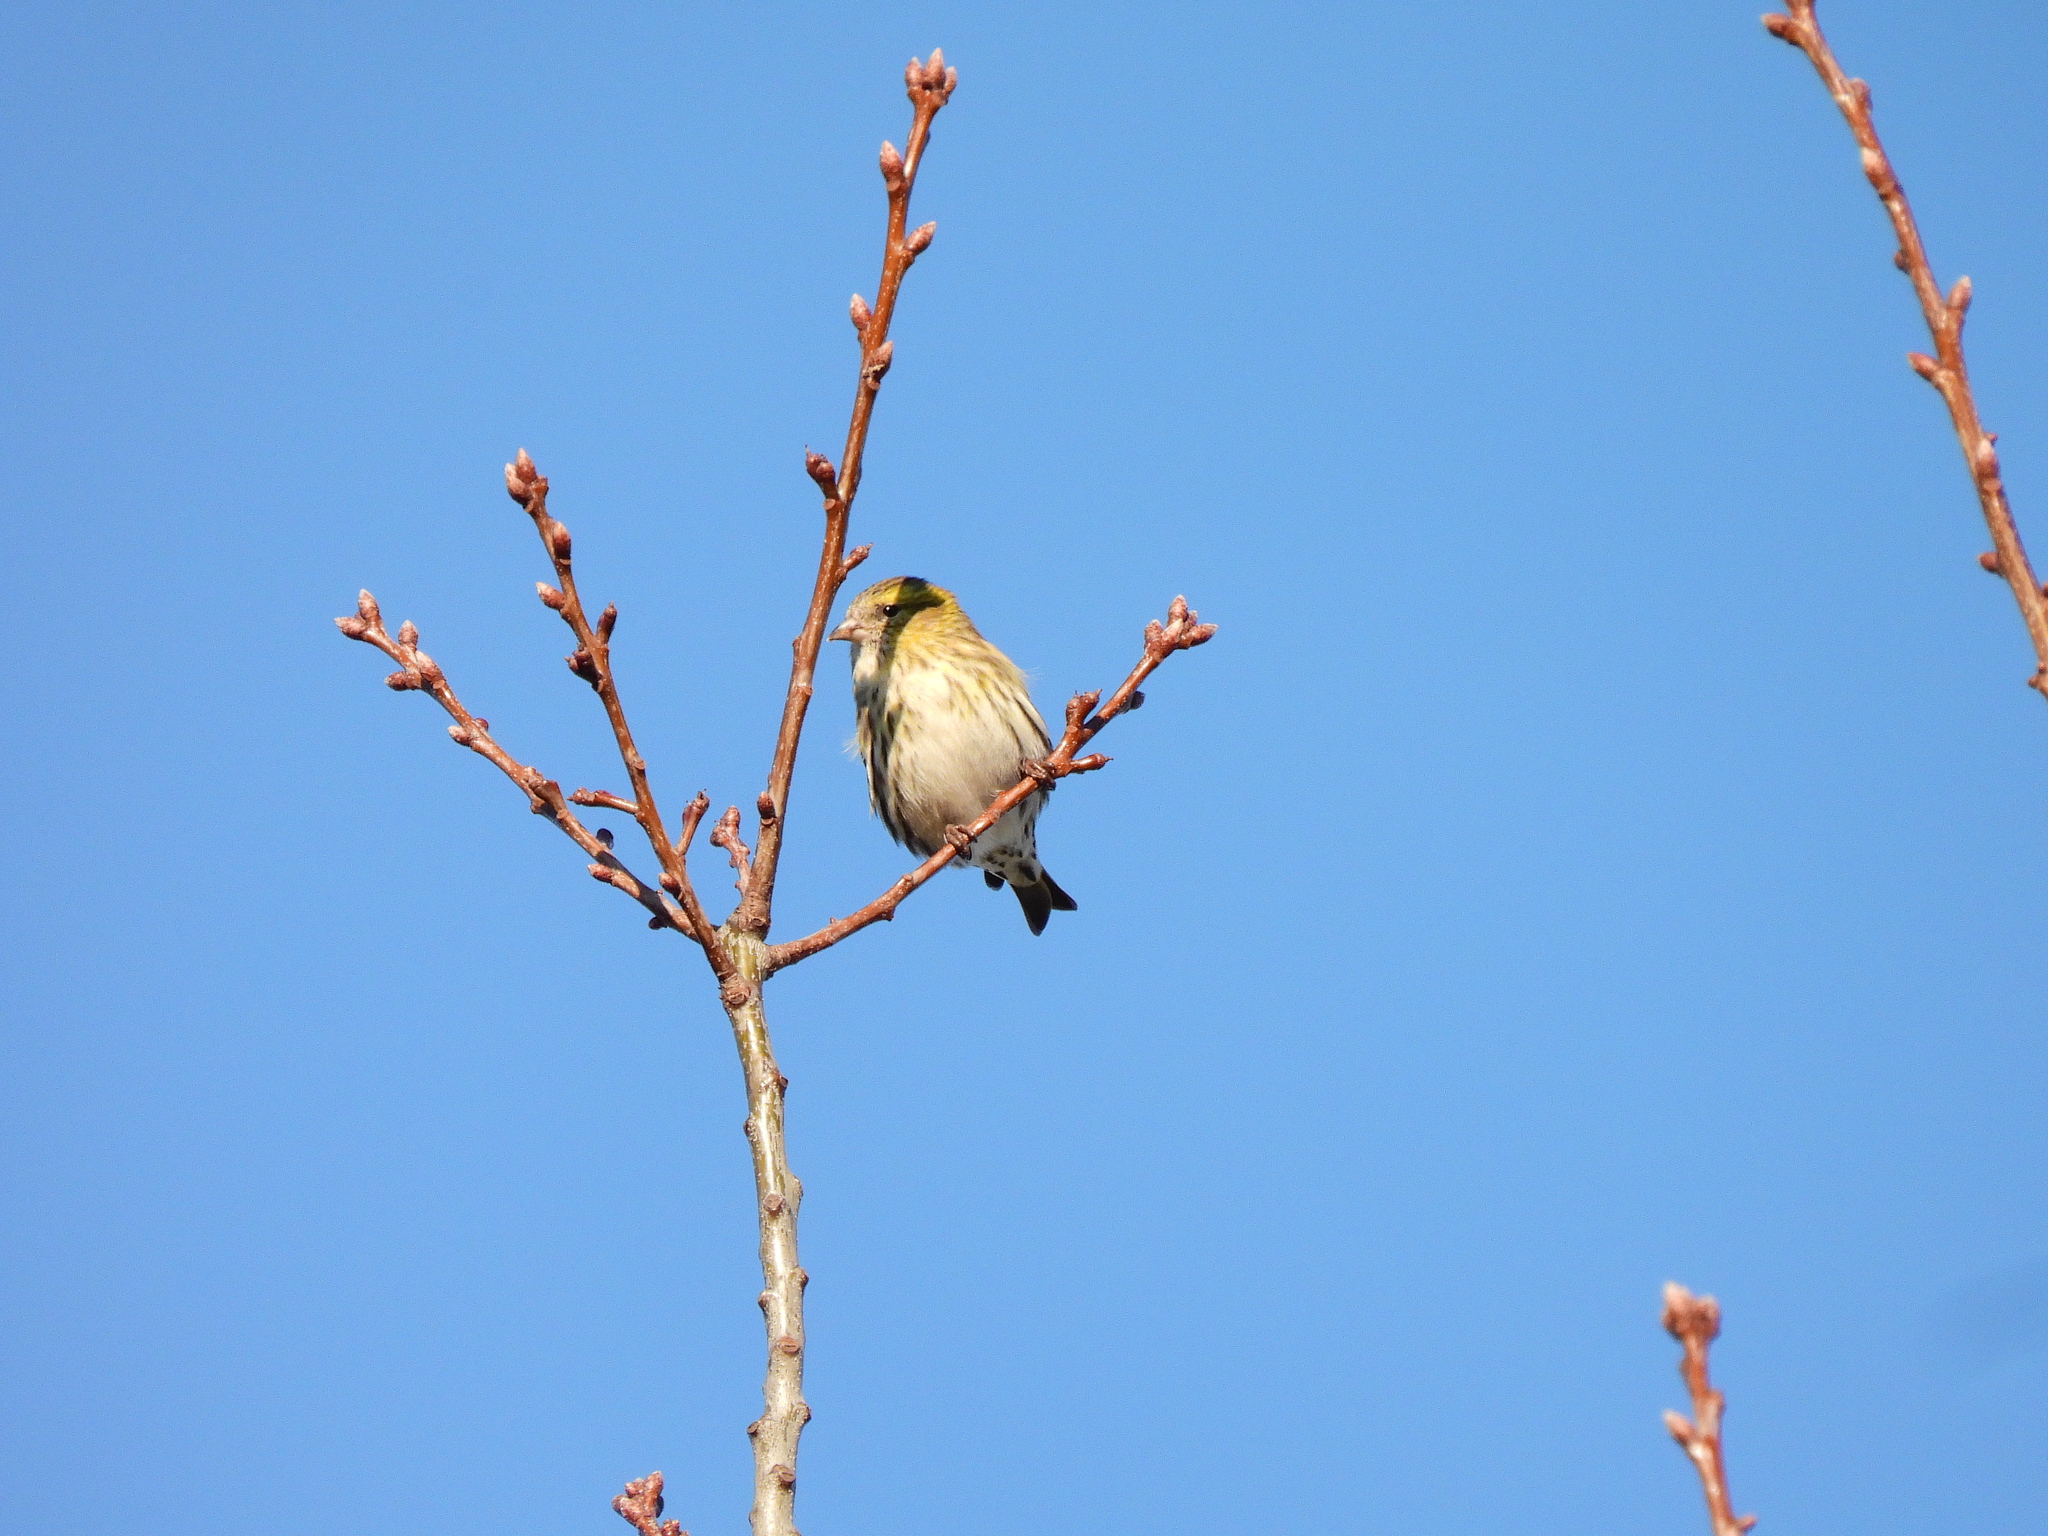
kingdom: Animalia
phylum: Chordata
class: Aves
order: Passeriformes
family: Fringillidae
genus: Spinus
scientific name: Spinus spinus
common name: Eurasian siskin
